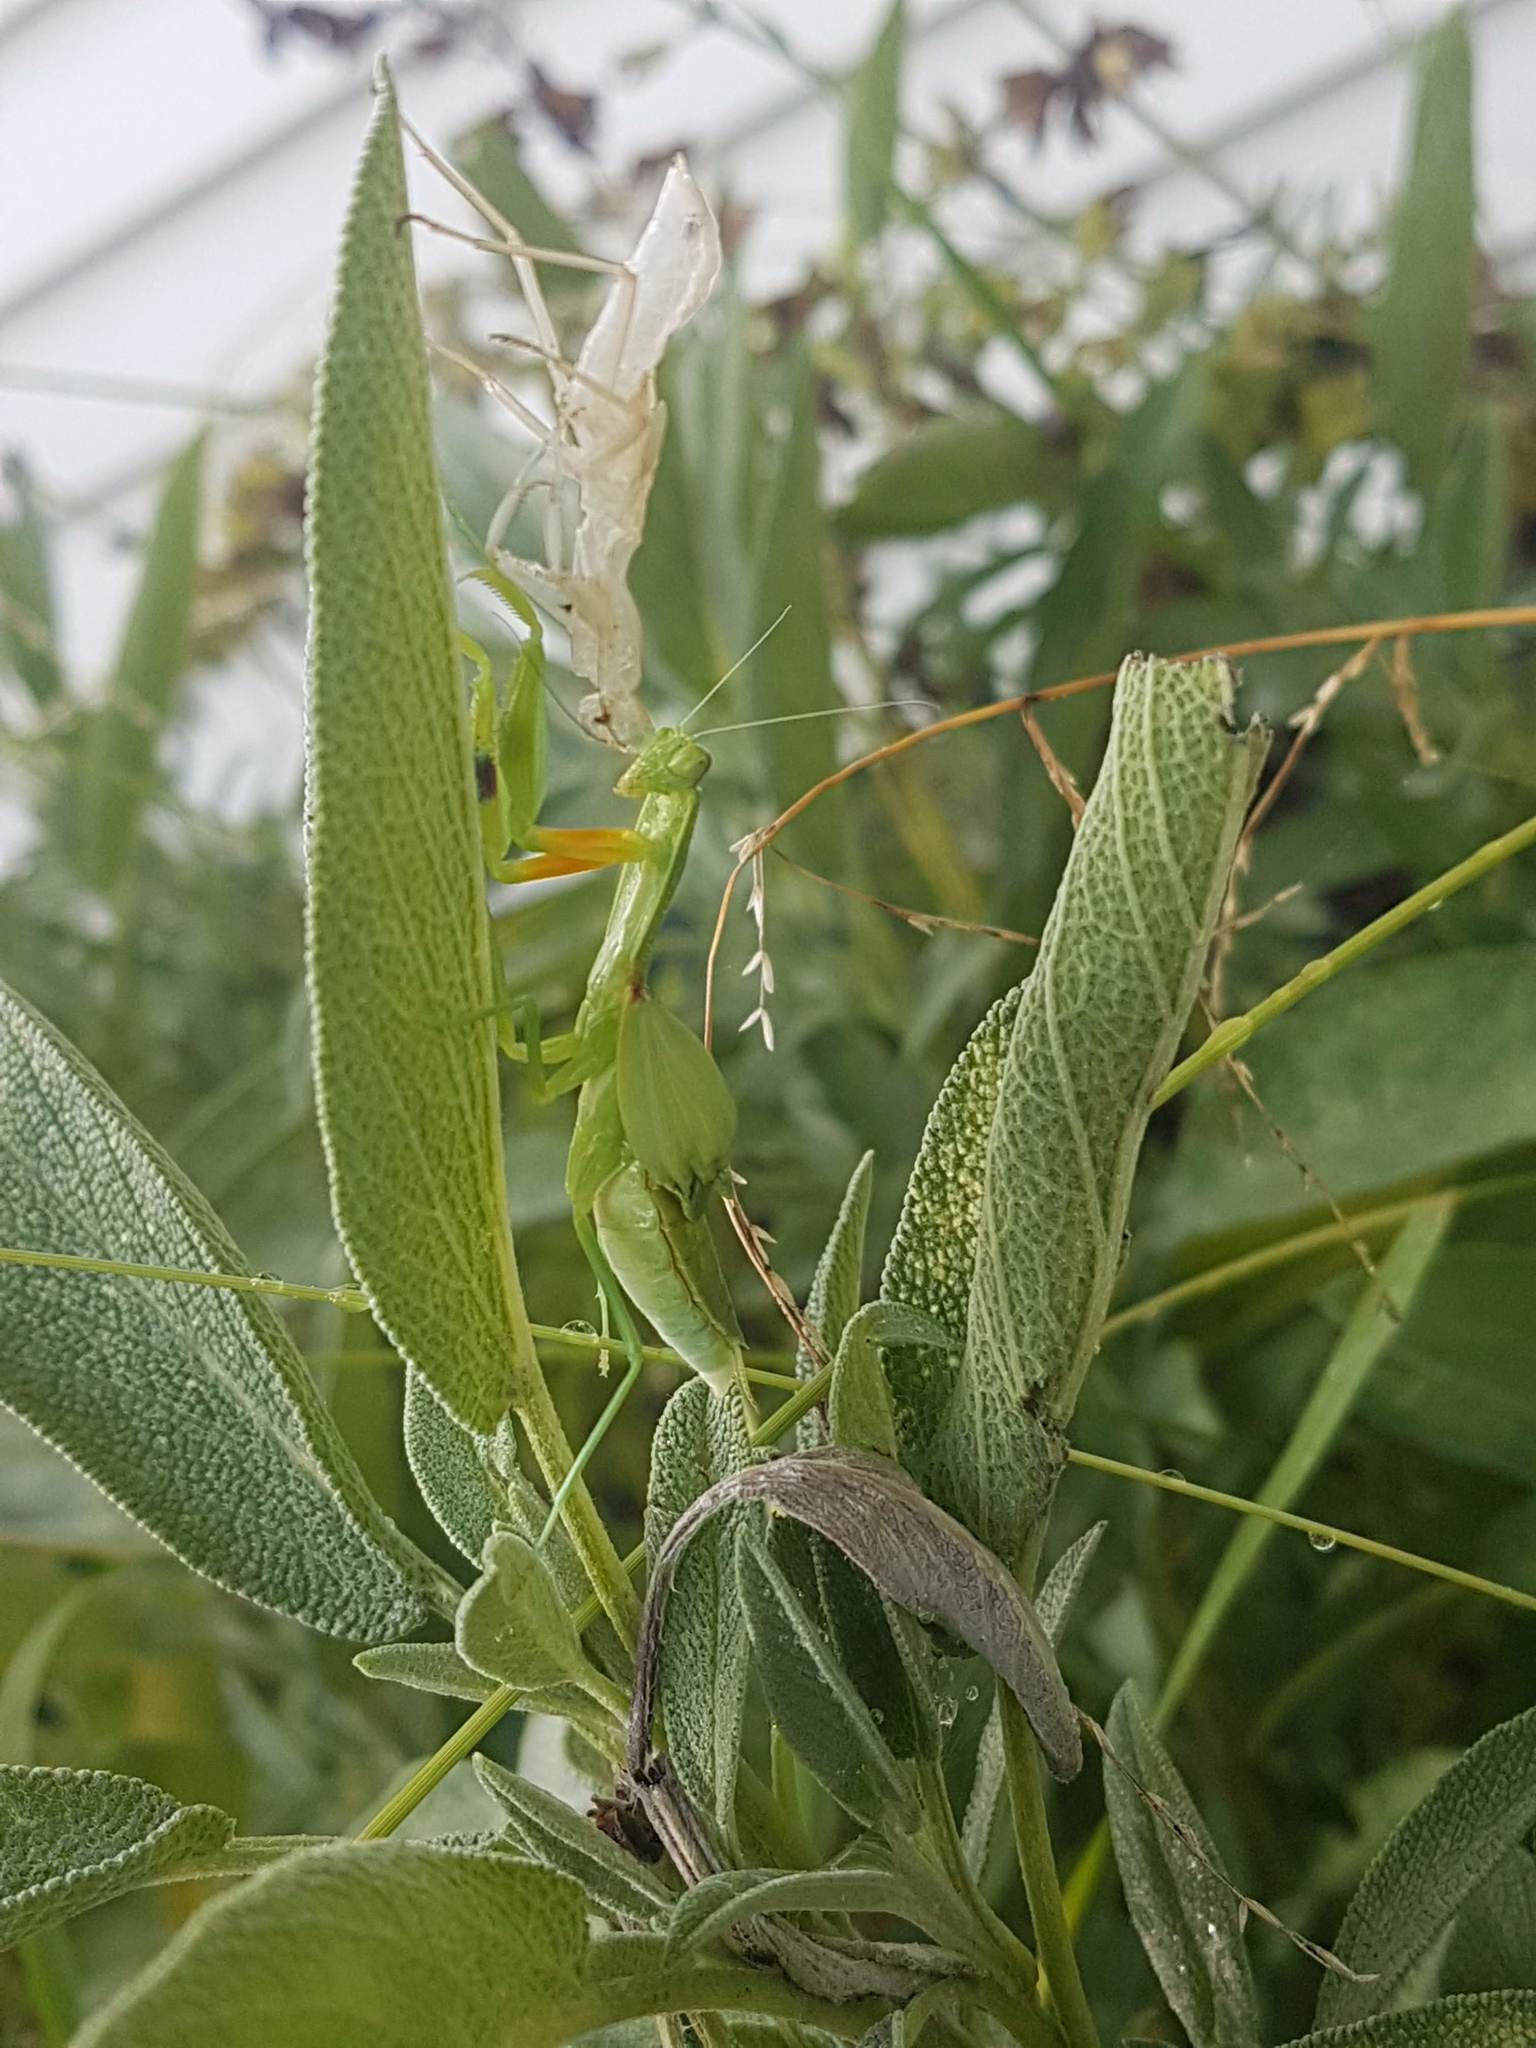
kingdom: Animalia
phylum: Arthropoda
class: Insecta
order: Mantodea
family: Mantidae
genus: Orthodera
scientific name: Orthodera novaezealandiae
